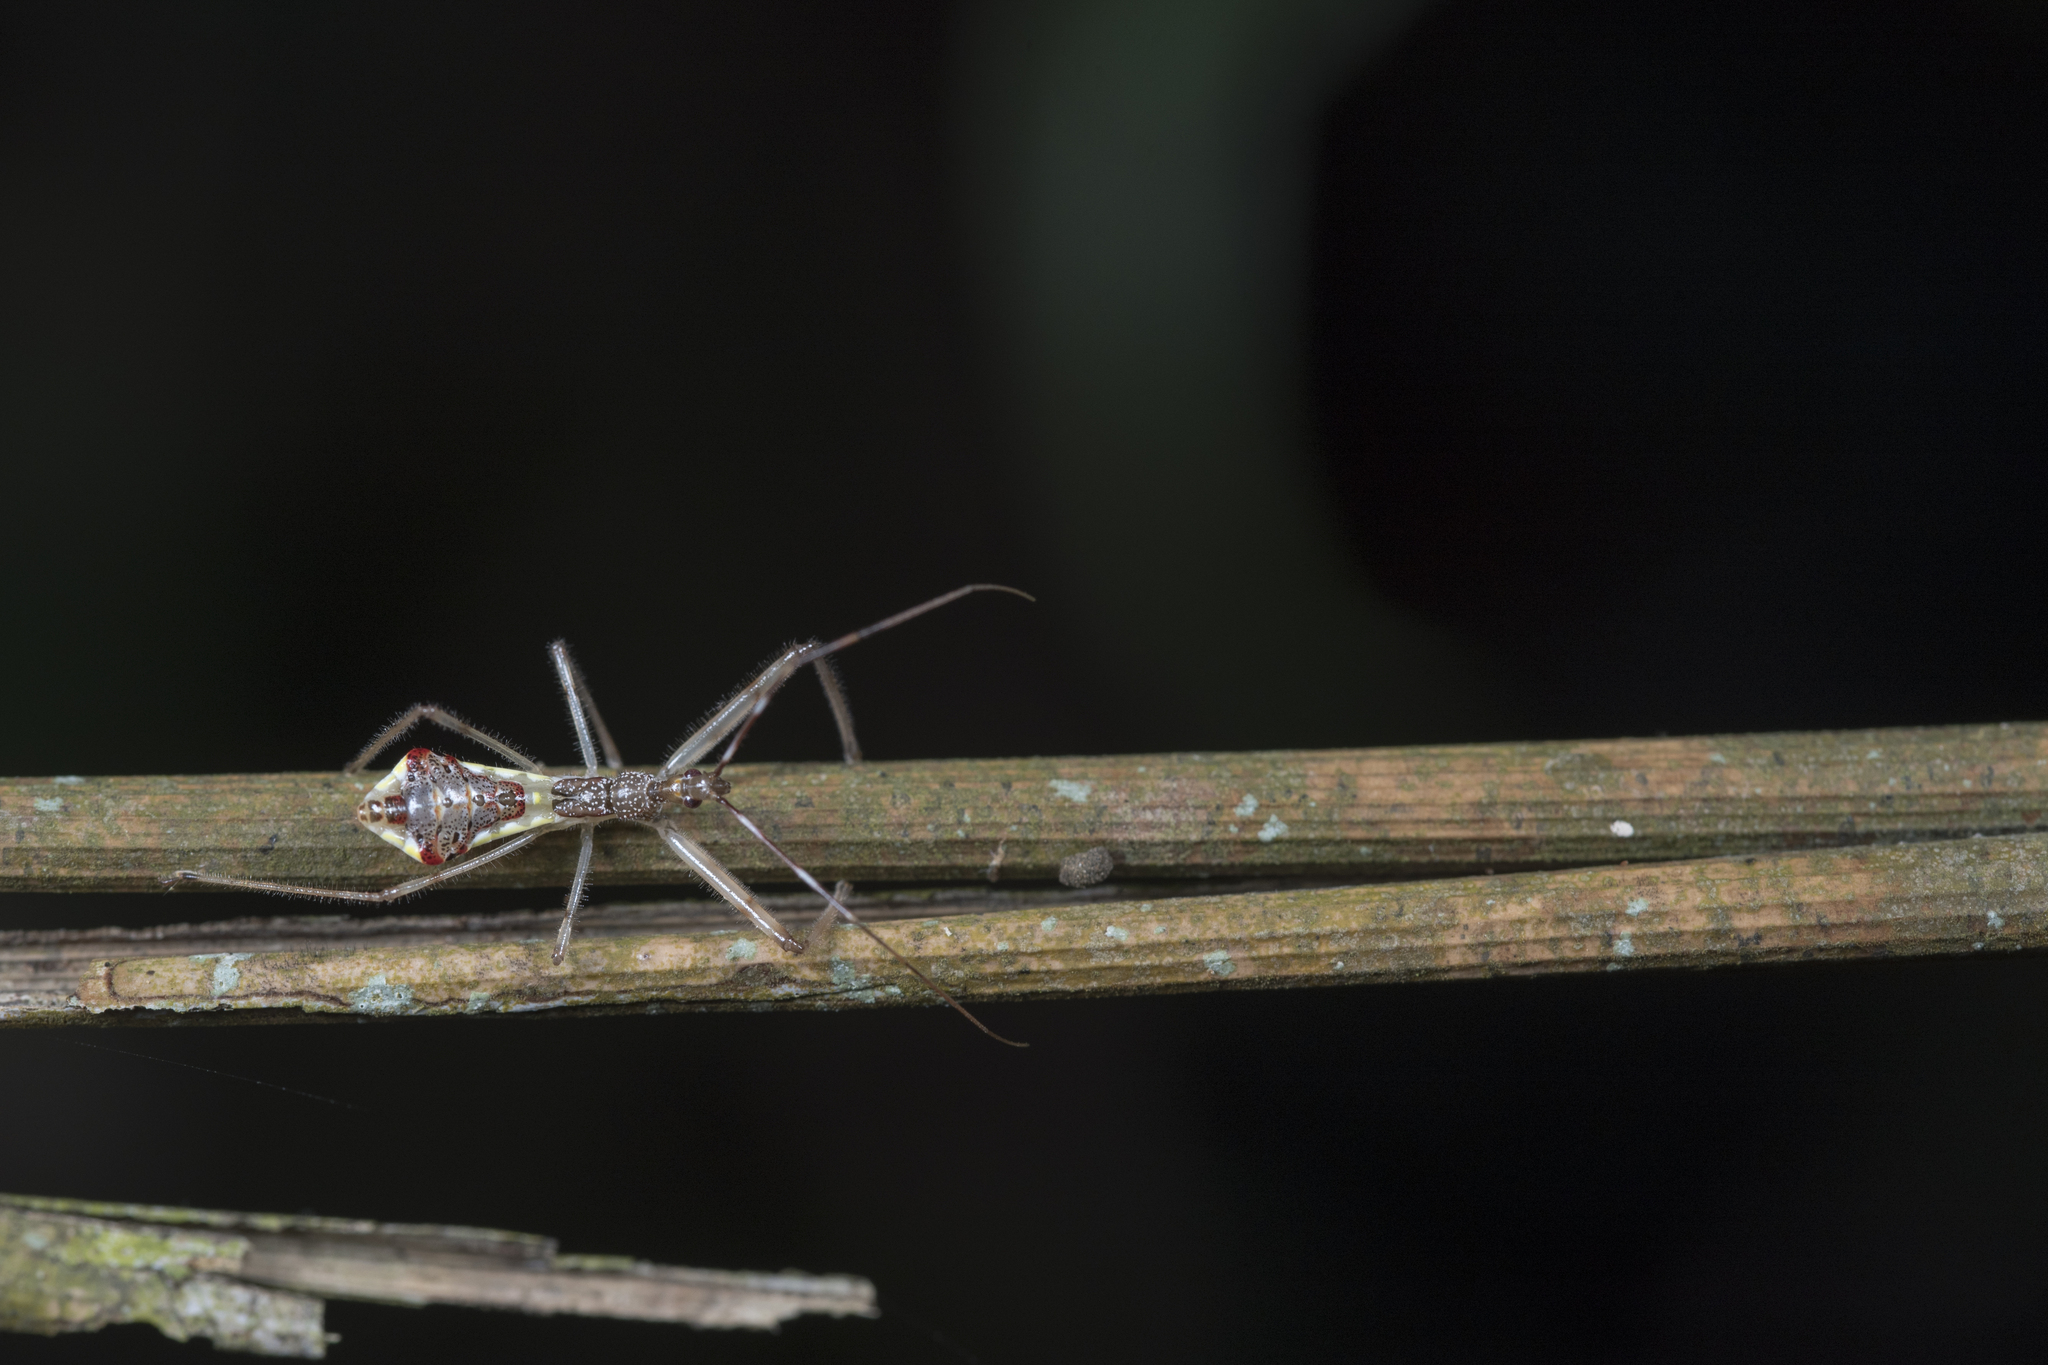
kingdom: Animalia
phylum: Arthropoda
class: Insecta
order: Hemiptera
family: Reduviidae
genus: Epidaus
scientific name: Epidaus sexspinus
